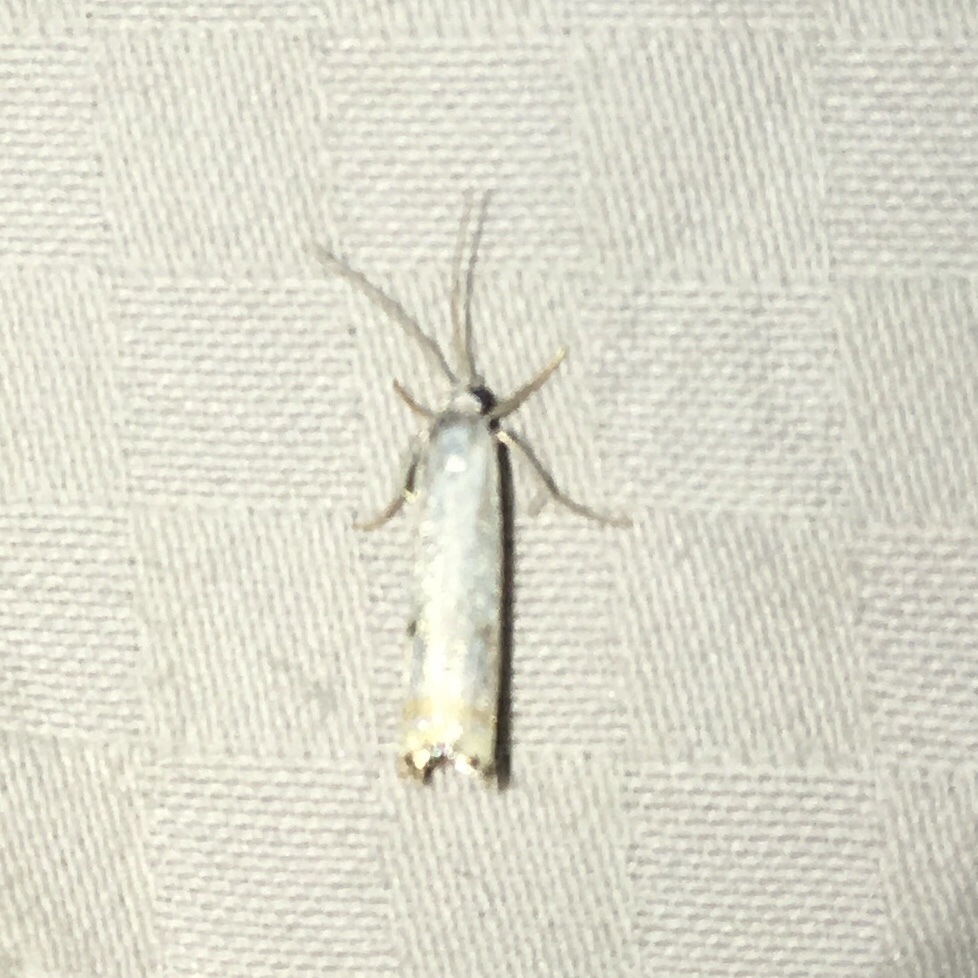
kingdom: Animalia
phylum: Arthropoda
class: Insecta
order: Lepidoptera
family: Crambidae
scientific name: Crambidae
